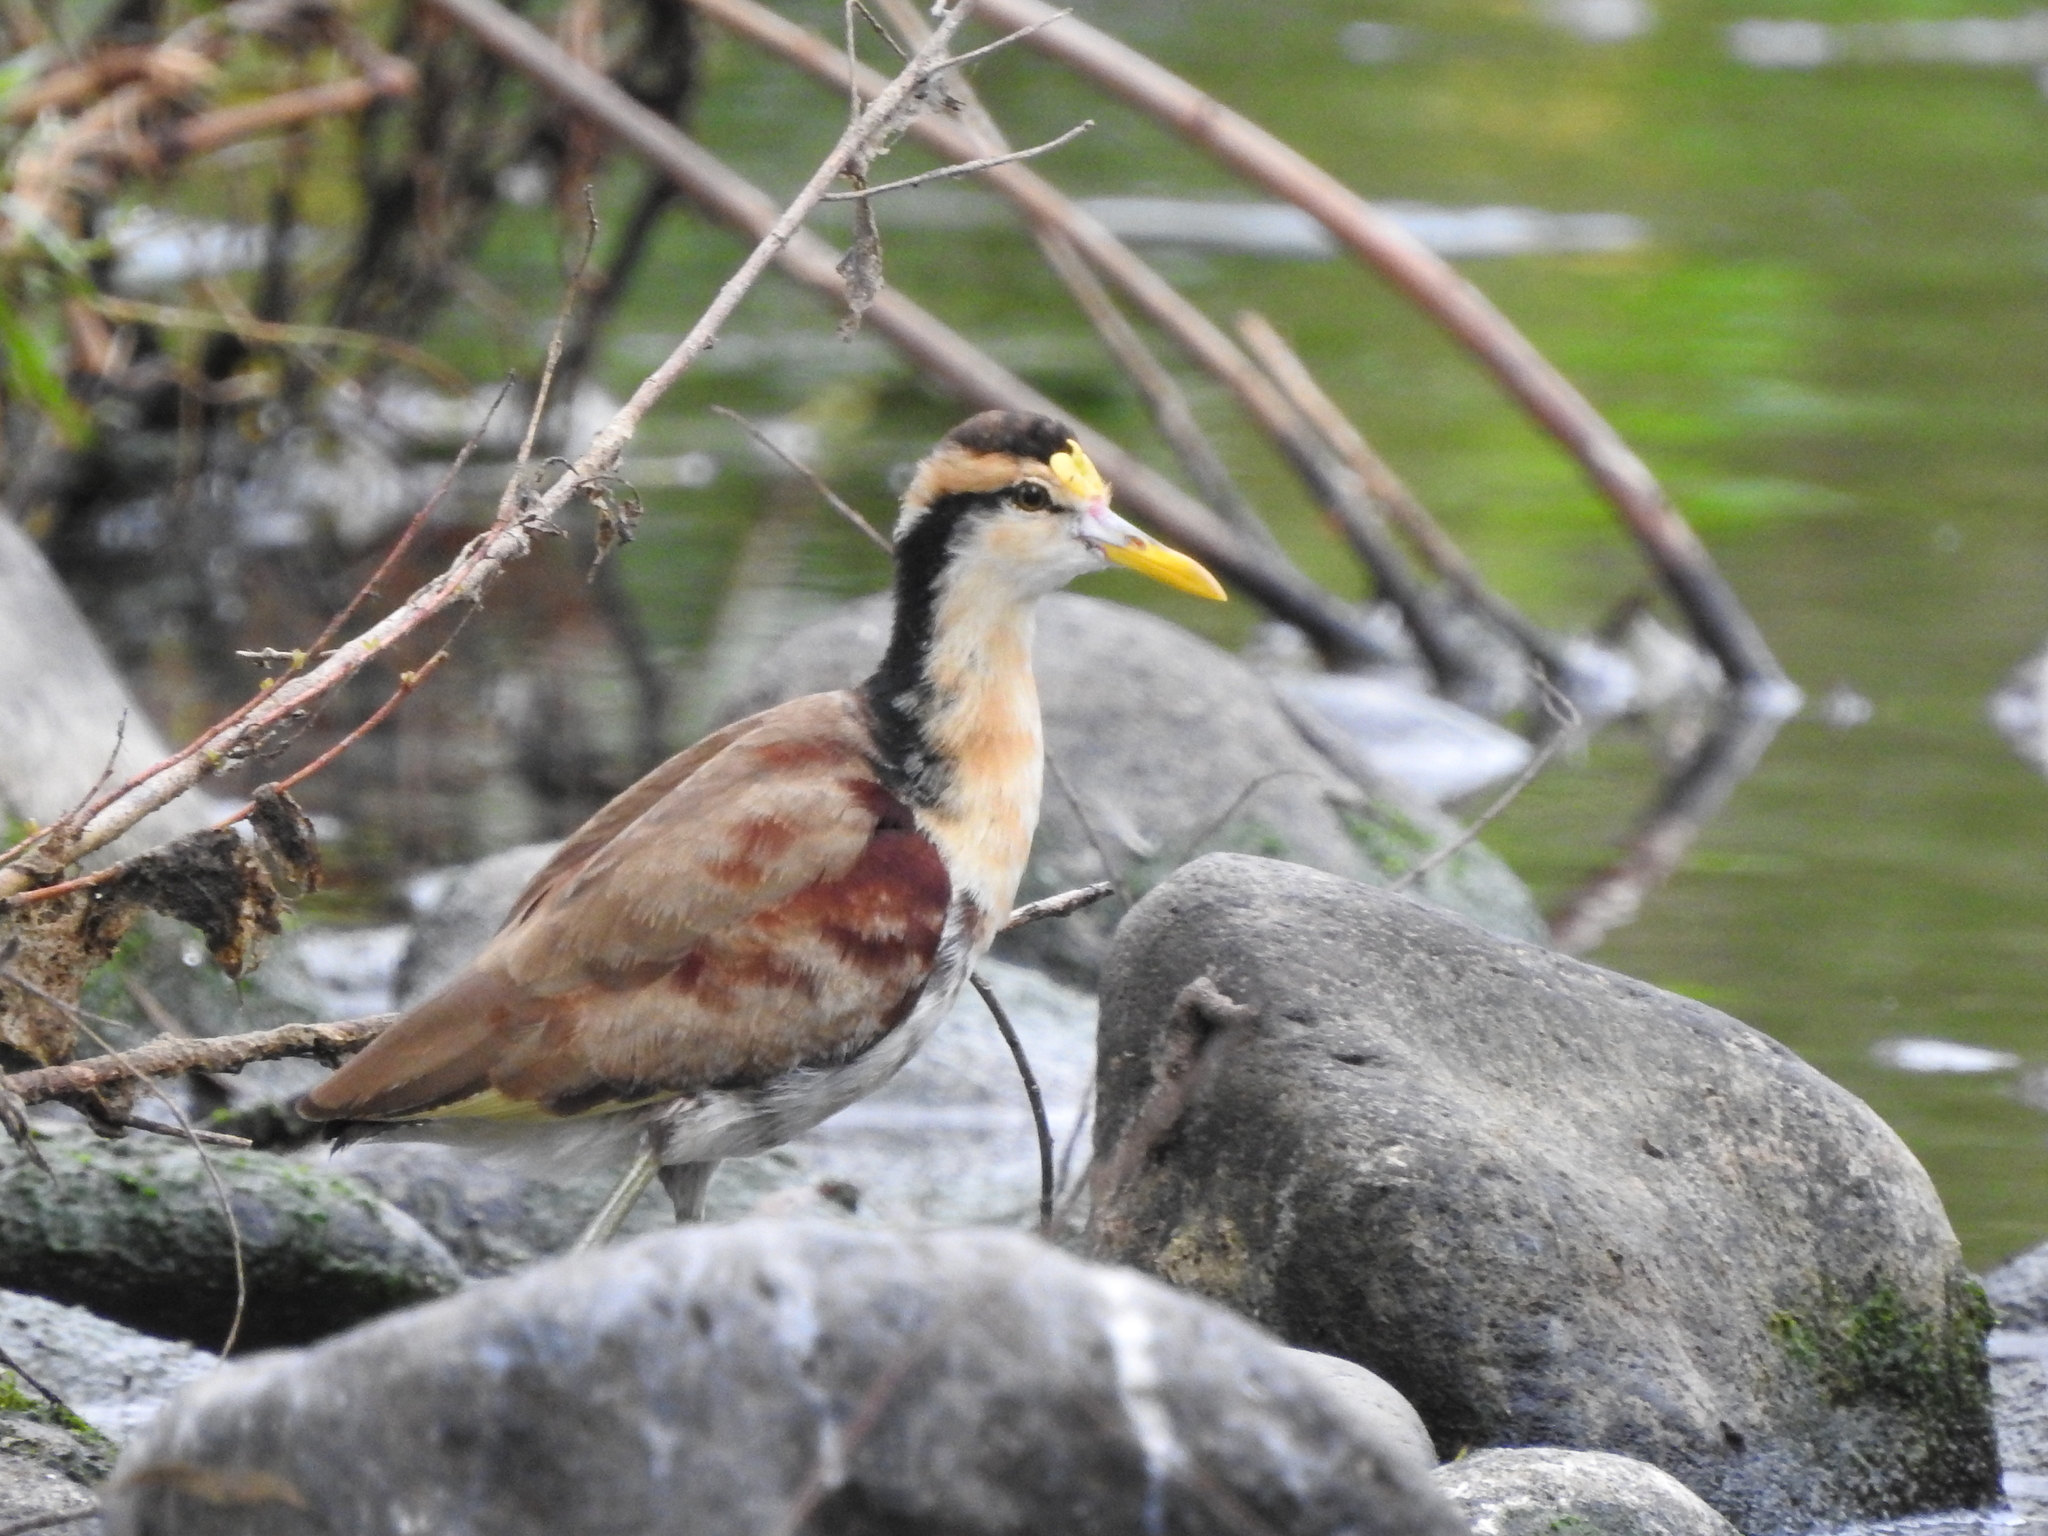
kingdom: Animalia
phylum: Chordata
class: Aves
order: Charadriiformes
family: Jacanidae
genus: Jacana
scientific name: Jacana spinosa
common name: Northern jacana
